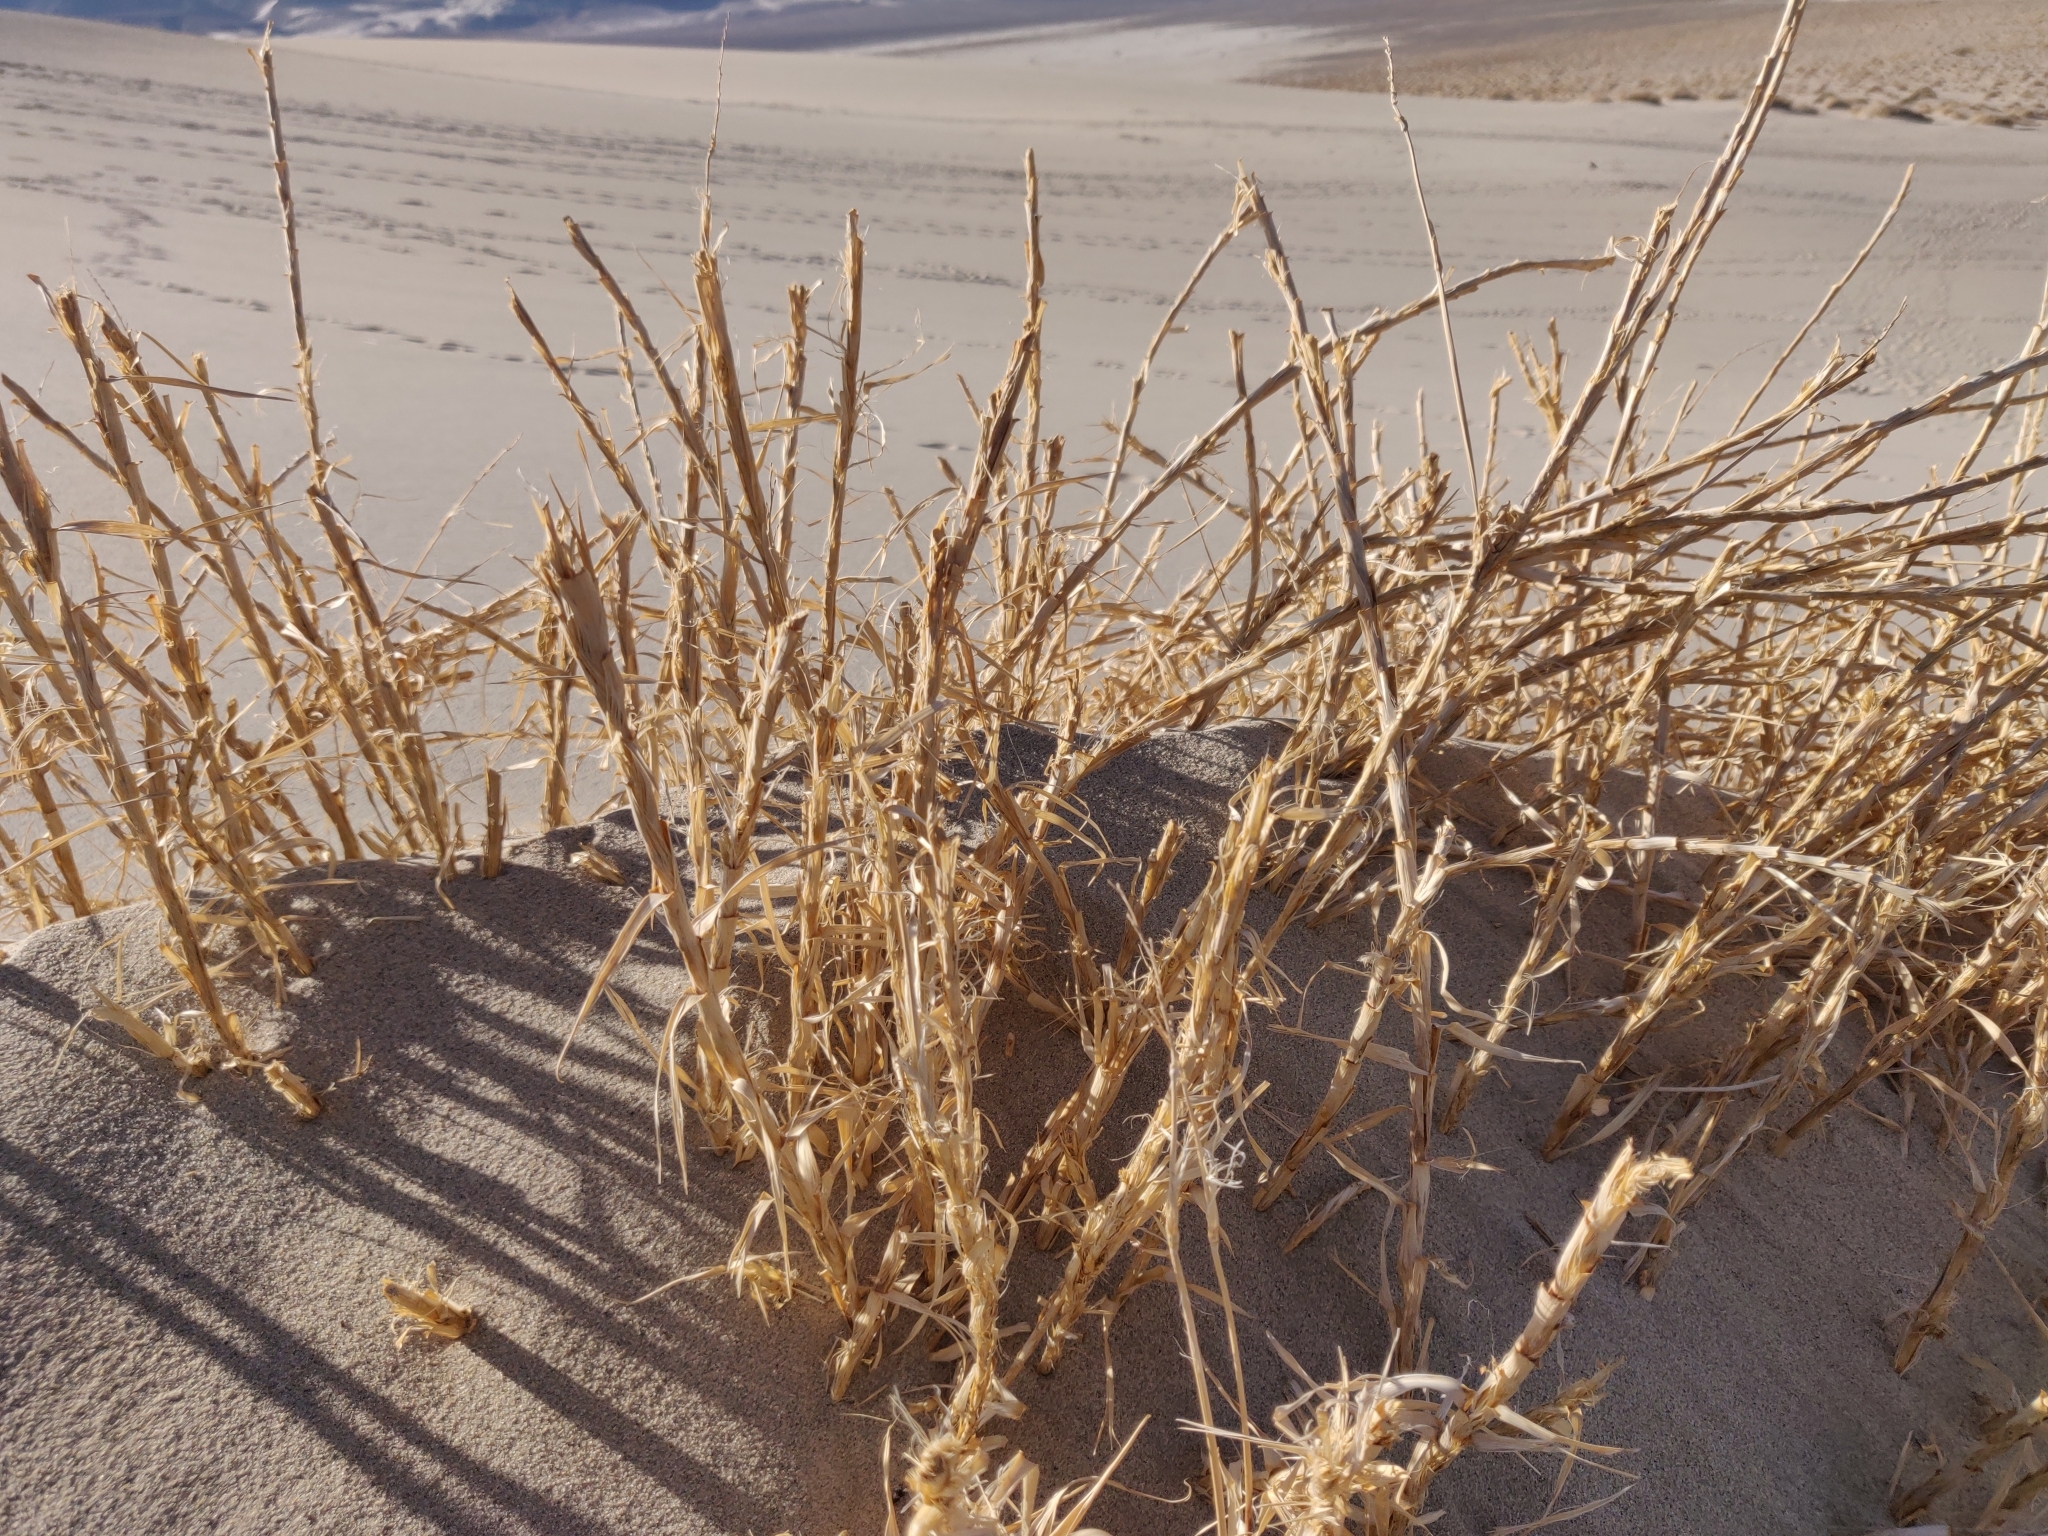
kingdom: Plantae
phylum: Tracheophyta
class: Liliopsida
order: Poales
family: Poaceae
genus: Swallenia
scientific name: Swallenia alexandrae
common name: Eureka dune grass
